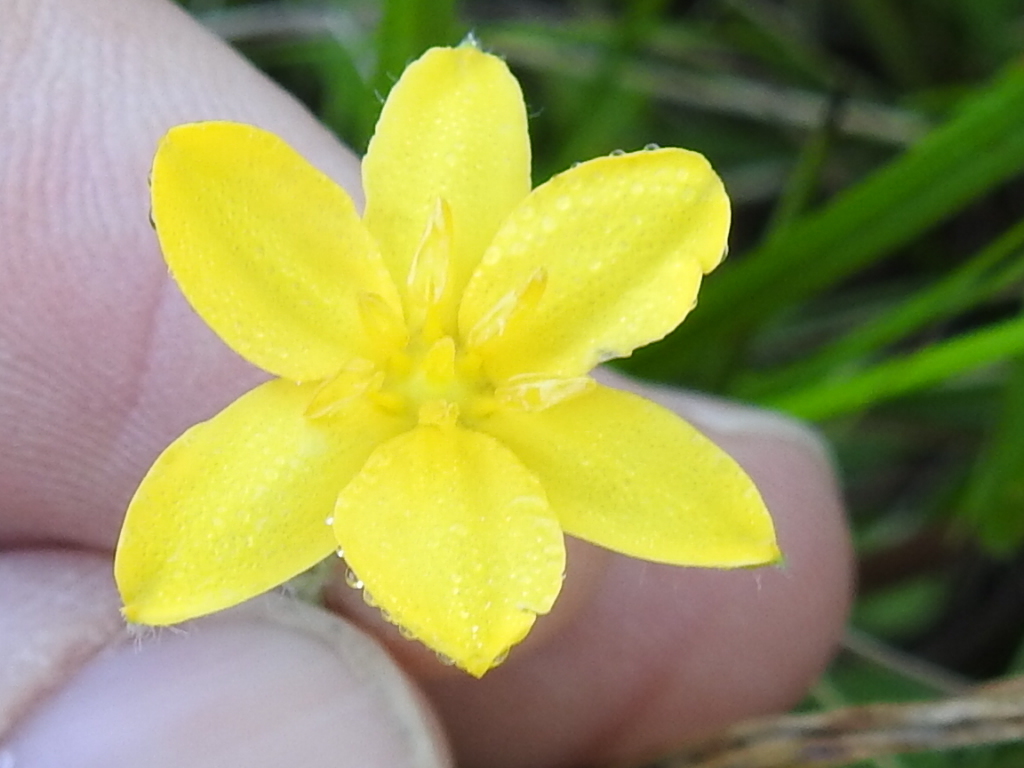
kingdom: Plantae
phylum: Tracheophyta
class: Liliopsida
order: Asparagales
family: Hypoxidaceae
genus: Hypoxis
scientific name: Hypoxis hirsuta
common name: Common goldstar
